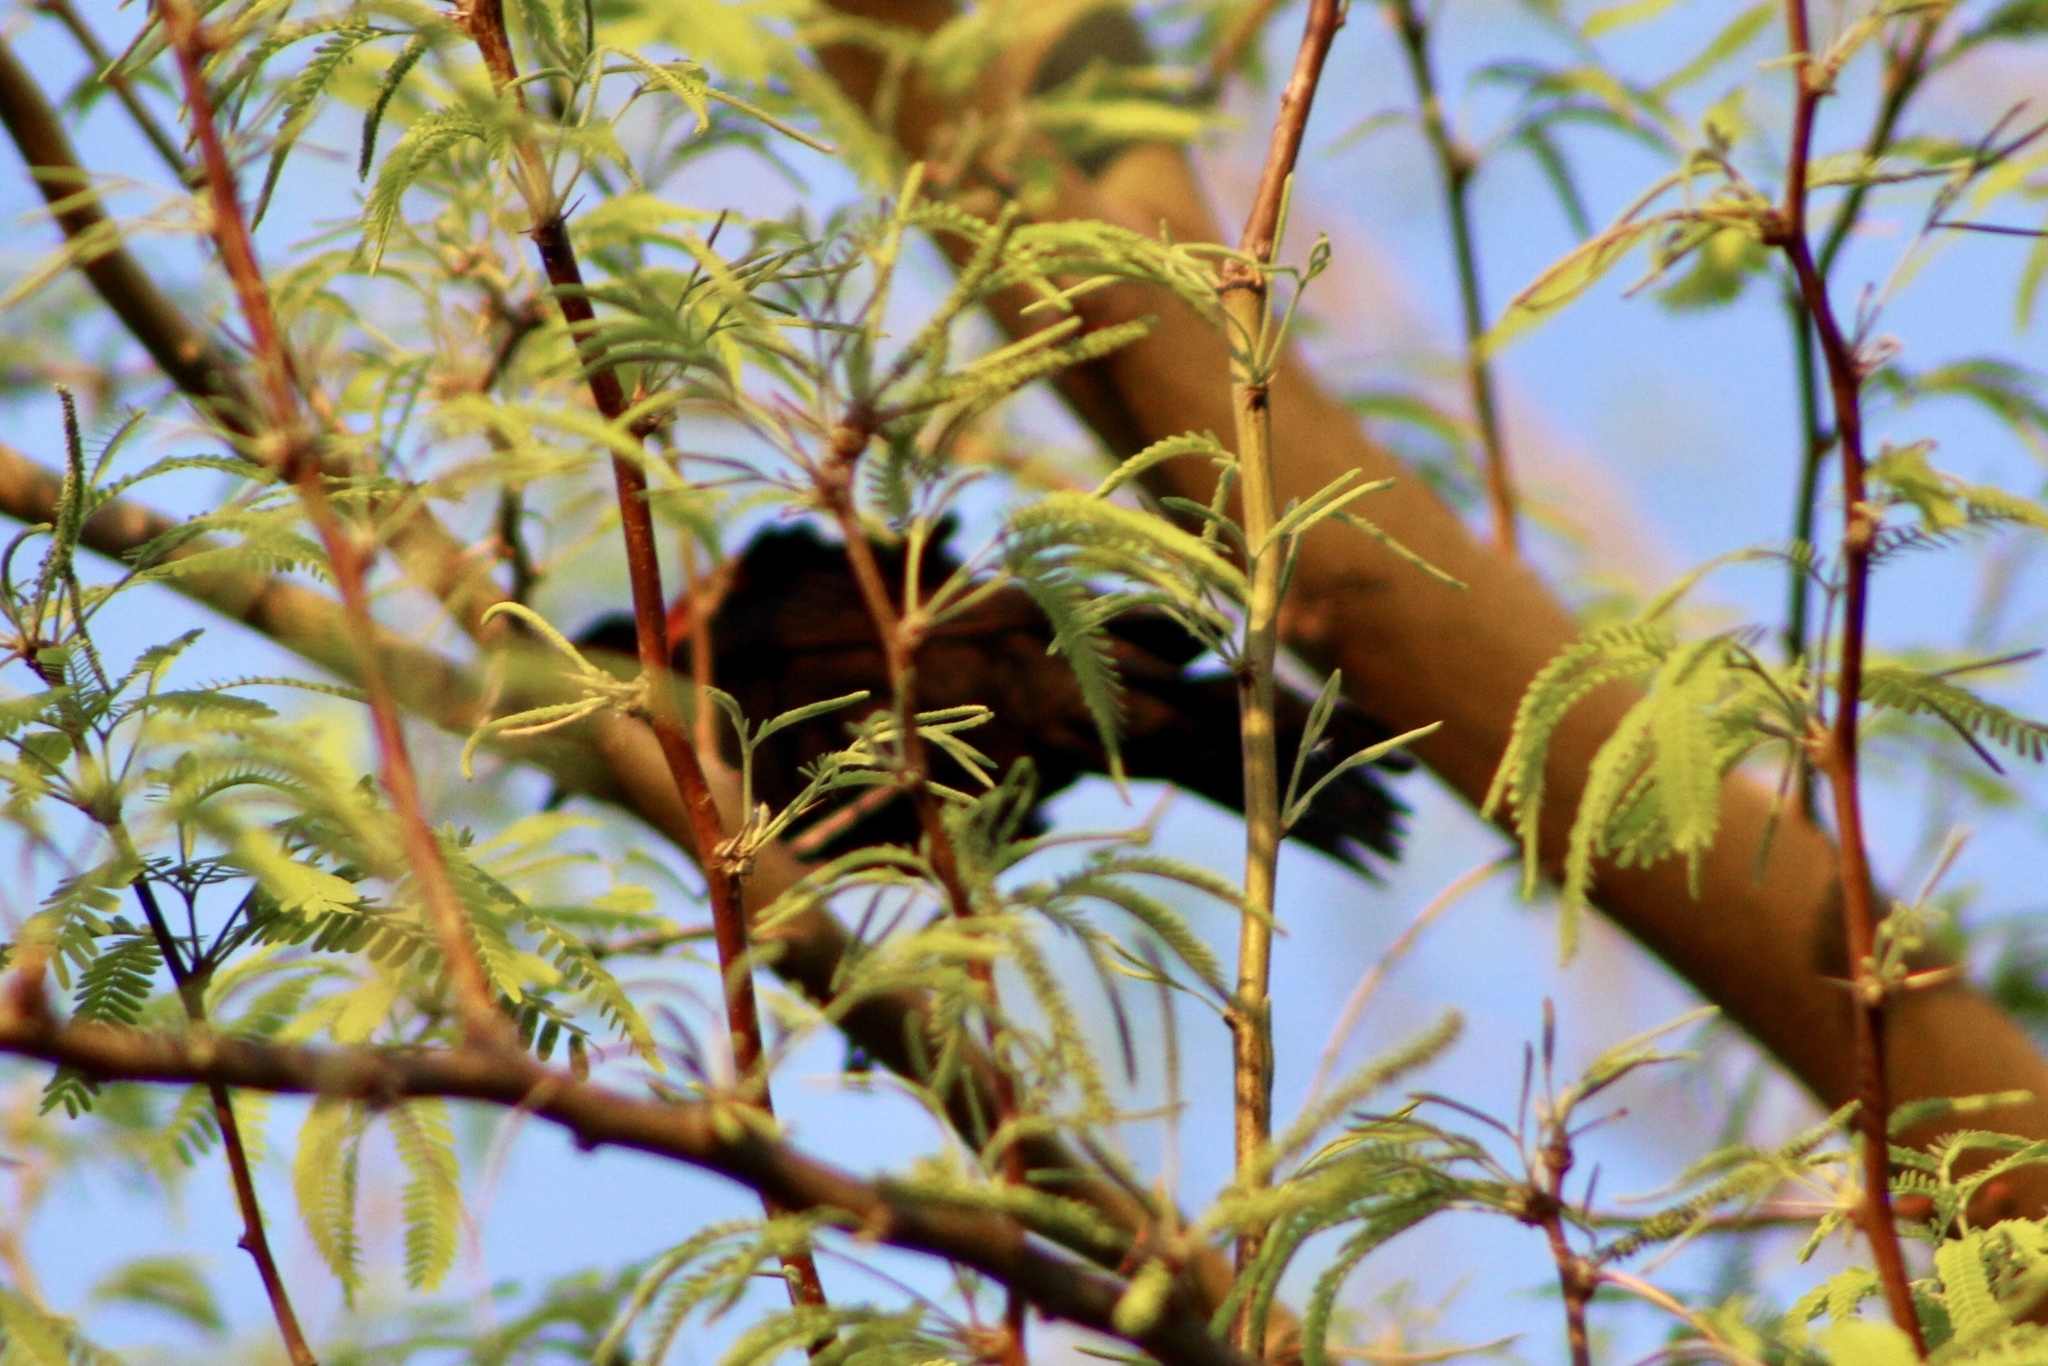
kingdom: Animalia
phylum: Chordata
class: Aves
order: Passeriformes
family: Icteridae
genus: Agelaius
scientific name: Agelaius phoeniceus
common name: Red-winged blackbird
